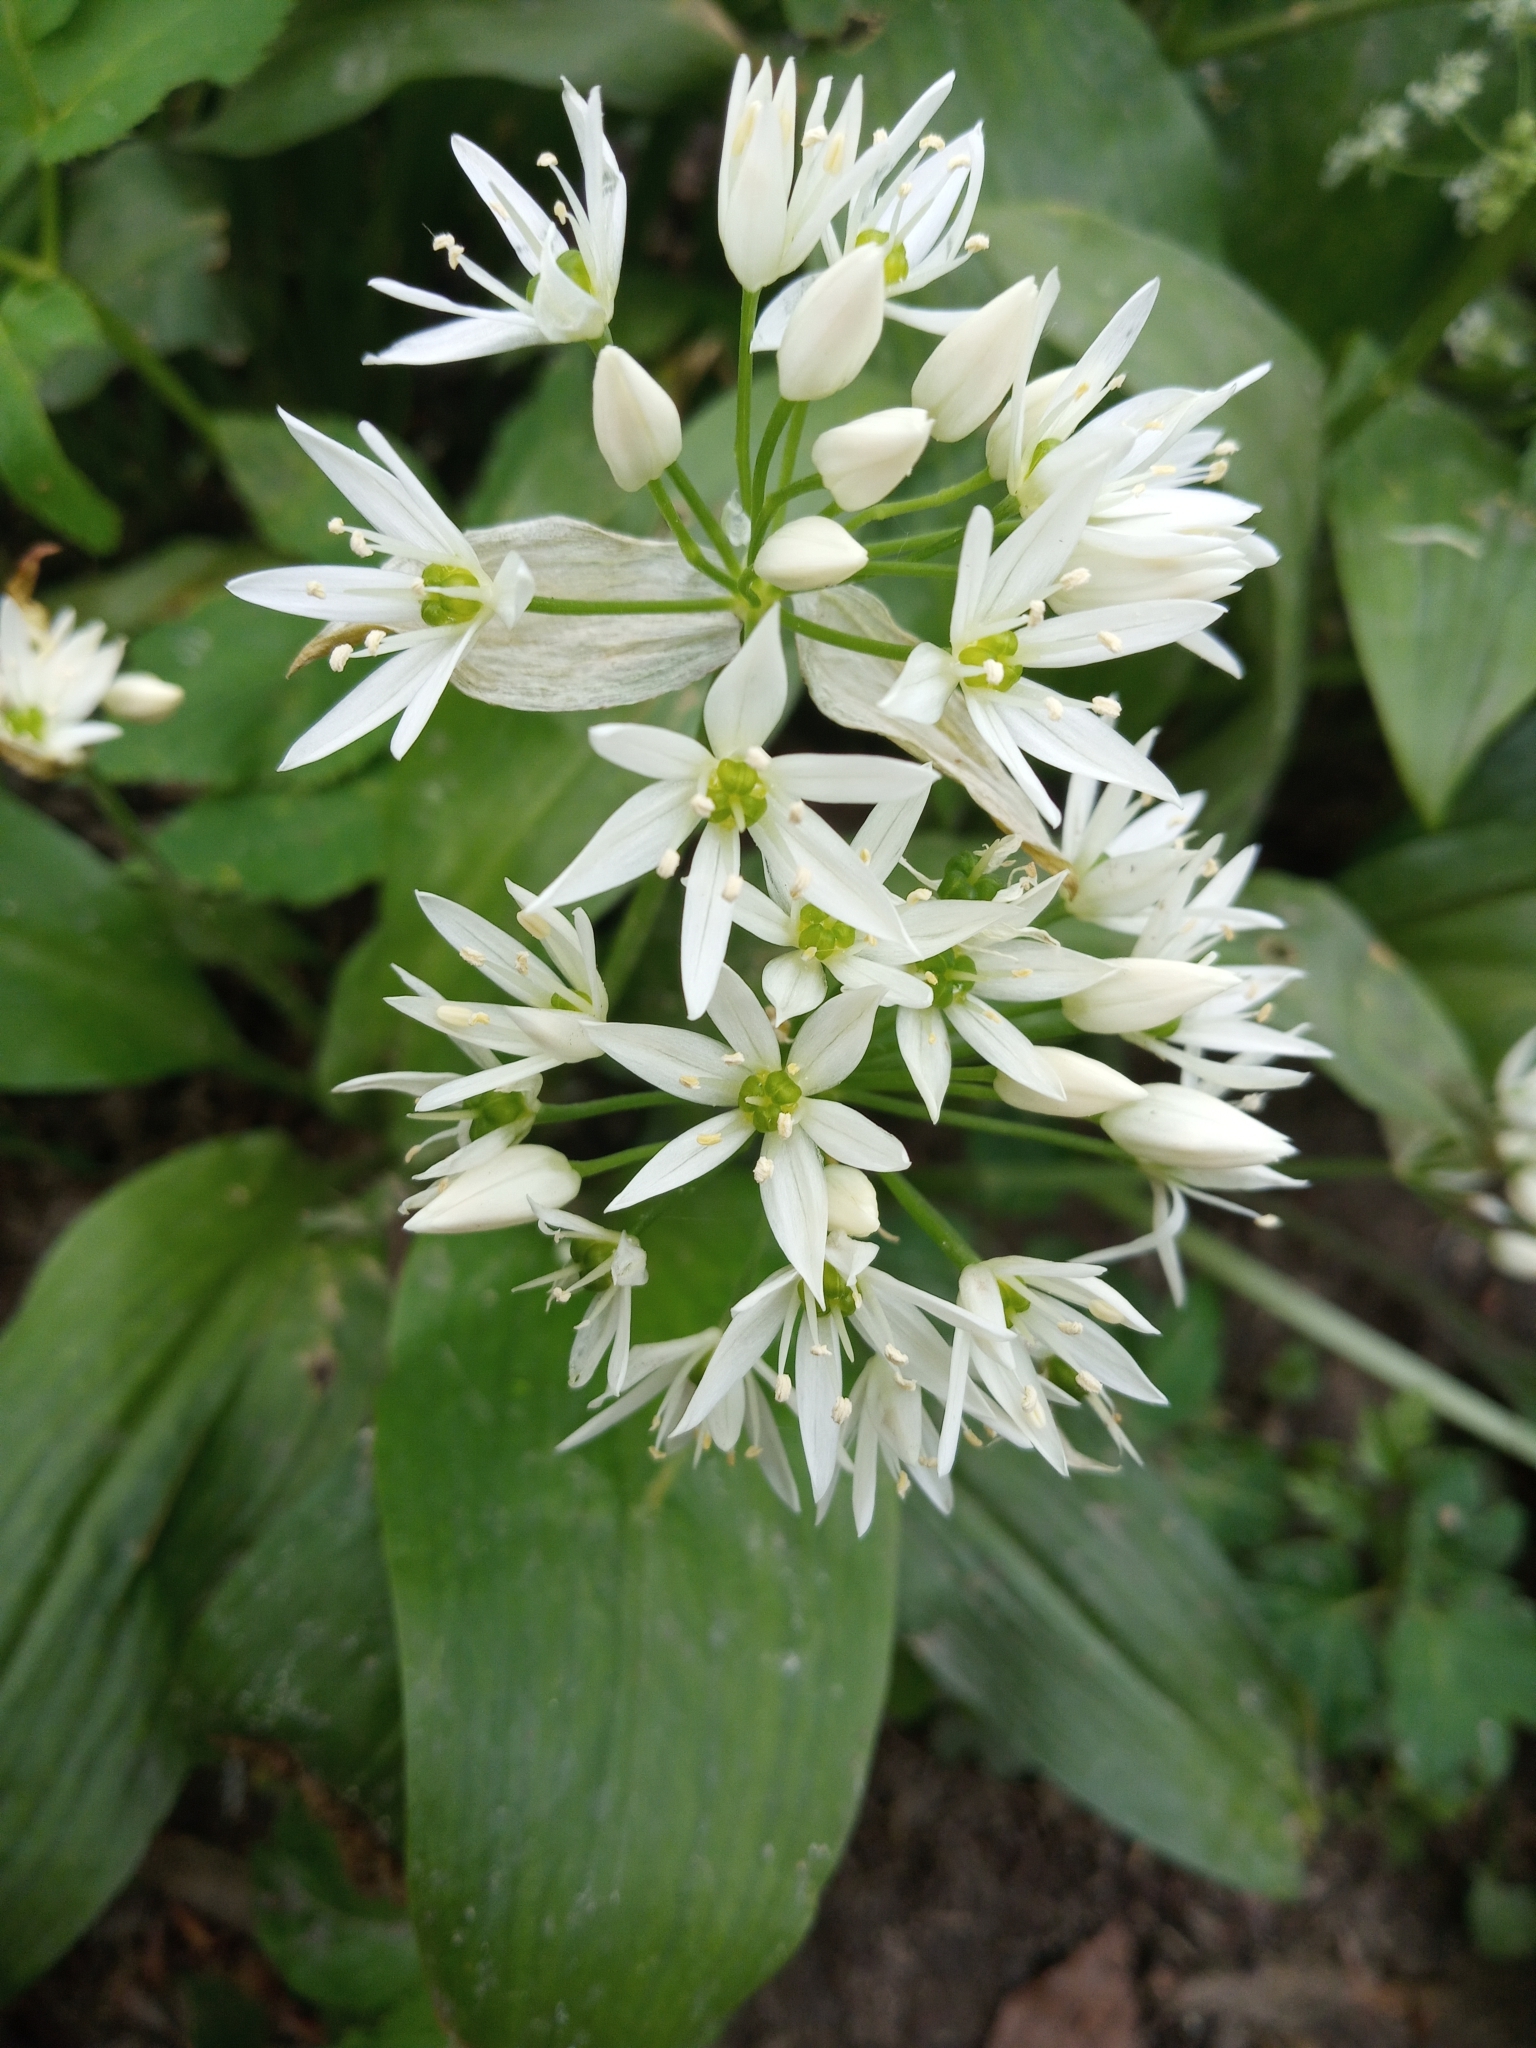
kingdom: Plantae
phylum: Tracheophyta
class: Liliopsida
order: Asparagales
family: Amaryllidaceae
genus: Allium
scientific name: Allium ursinum
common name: Ramsons
